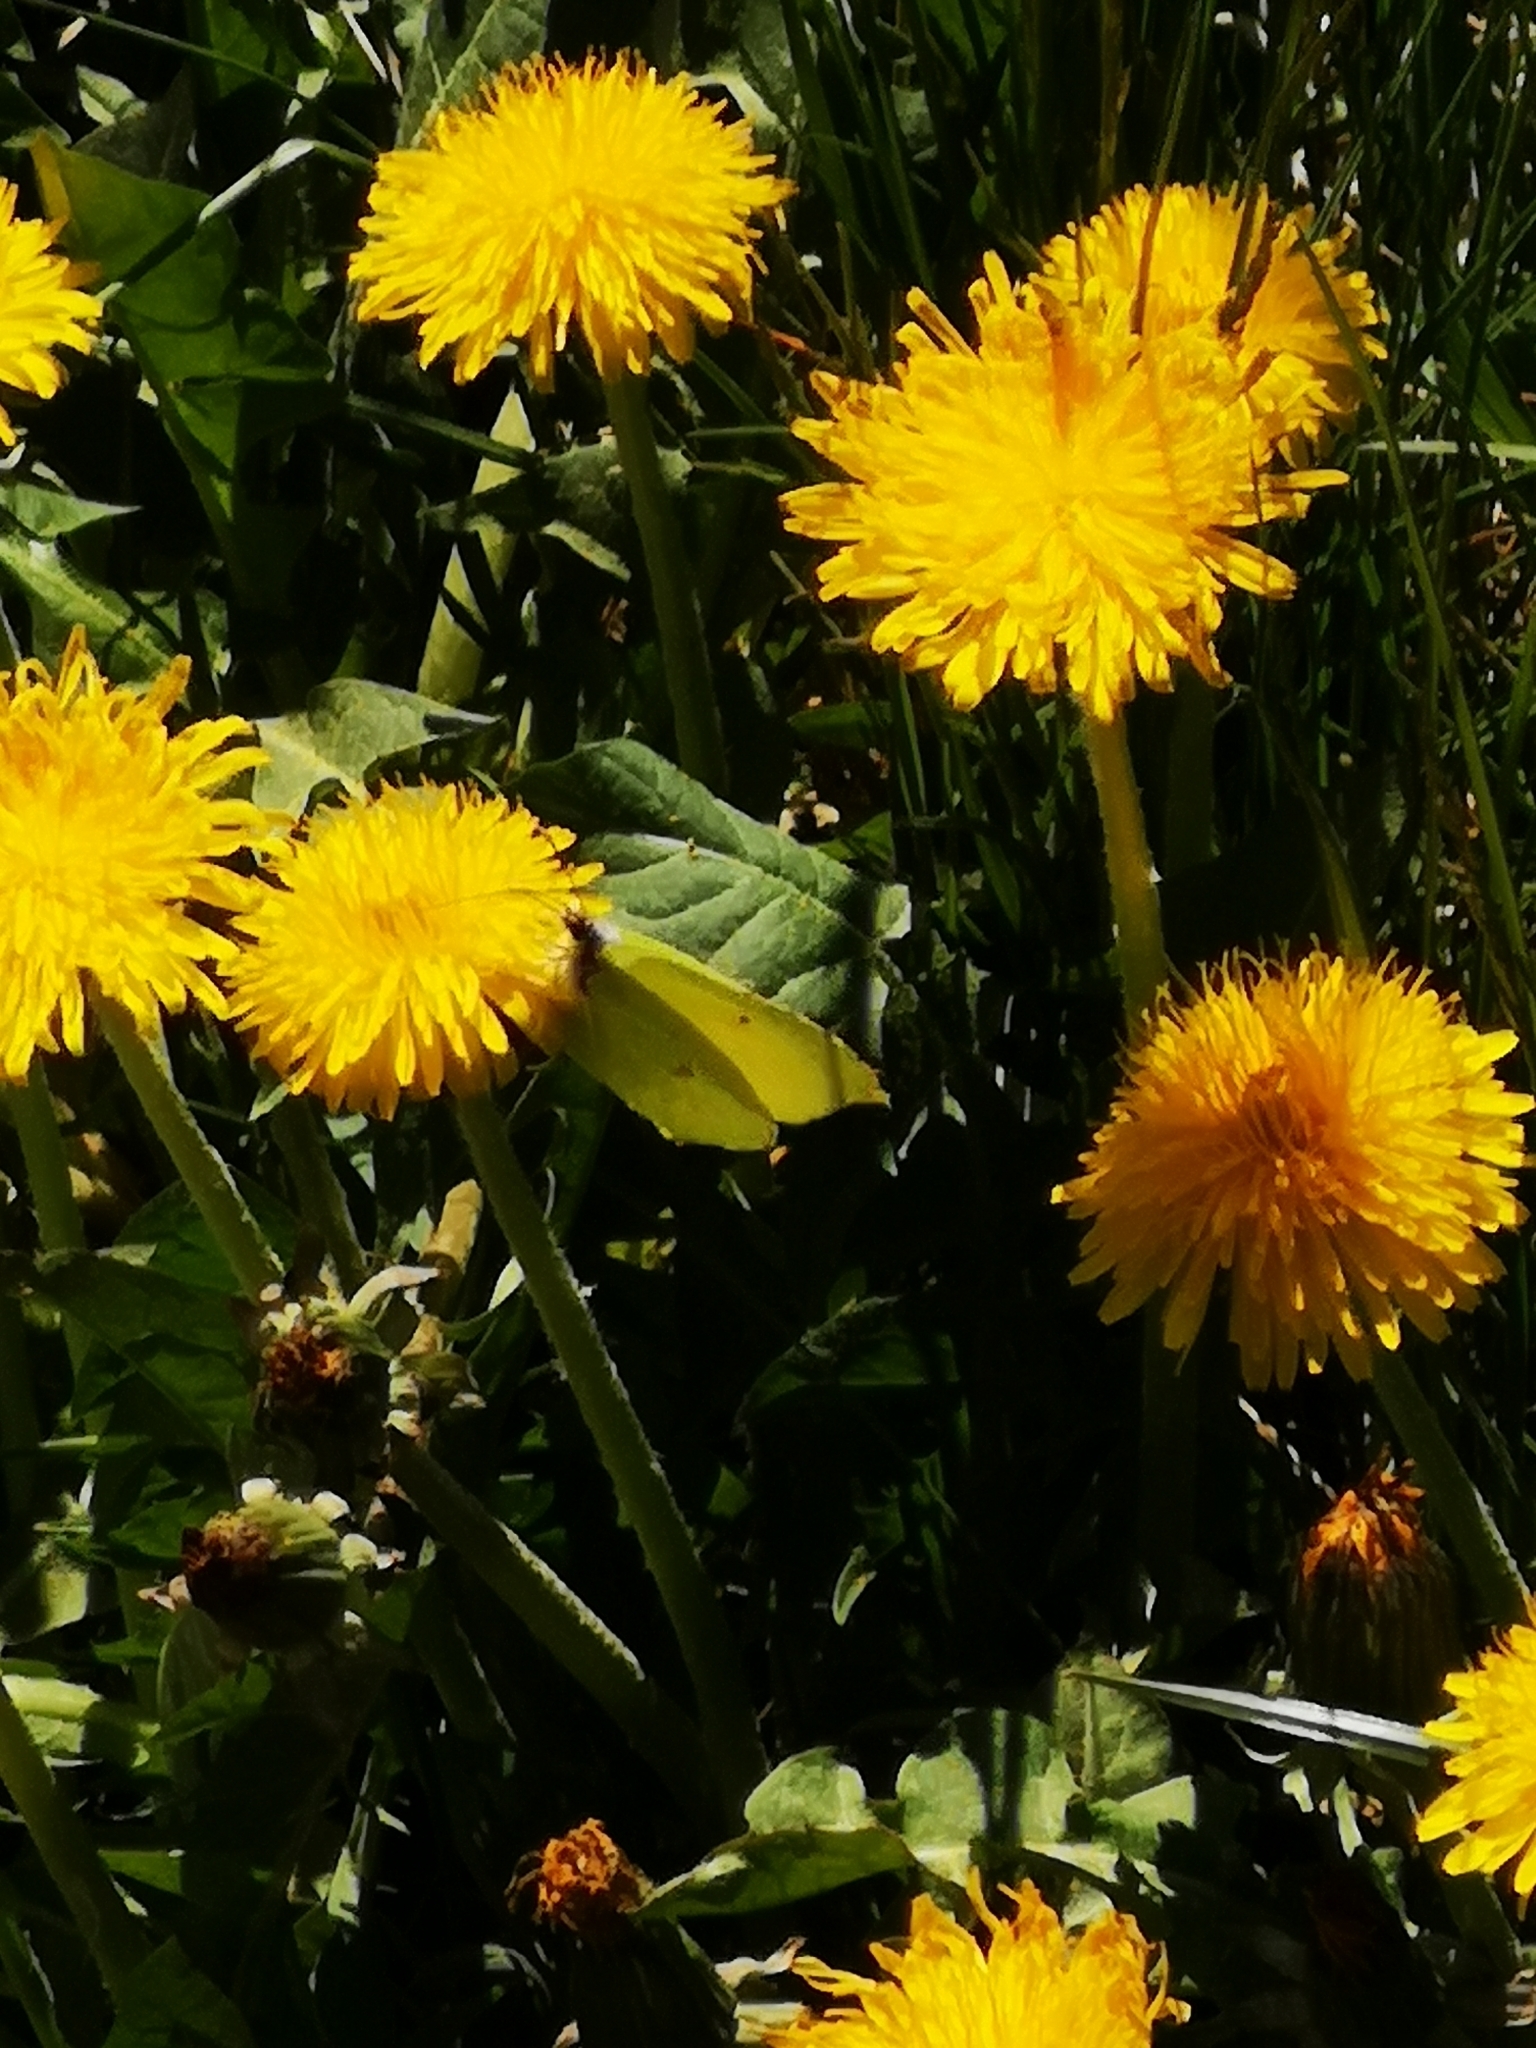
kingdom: Animalia
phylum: Arthropoda
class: Insecta
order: Lepidoptera
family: Pieridae
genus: Gonepteryx
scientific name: Gonepteryx rhamni
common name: Brimstone
